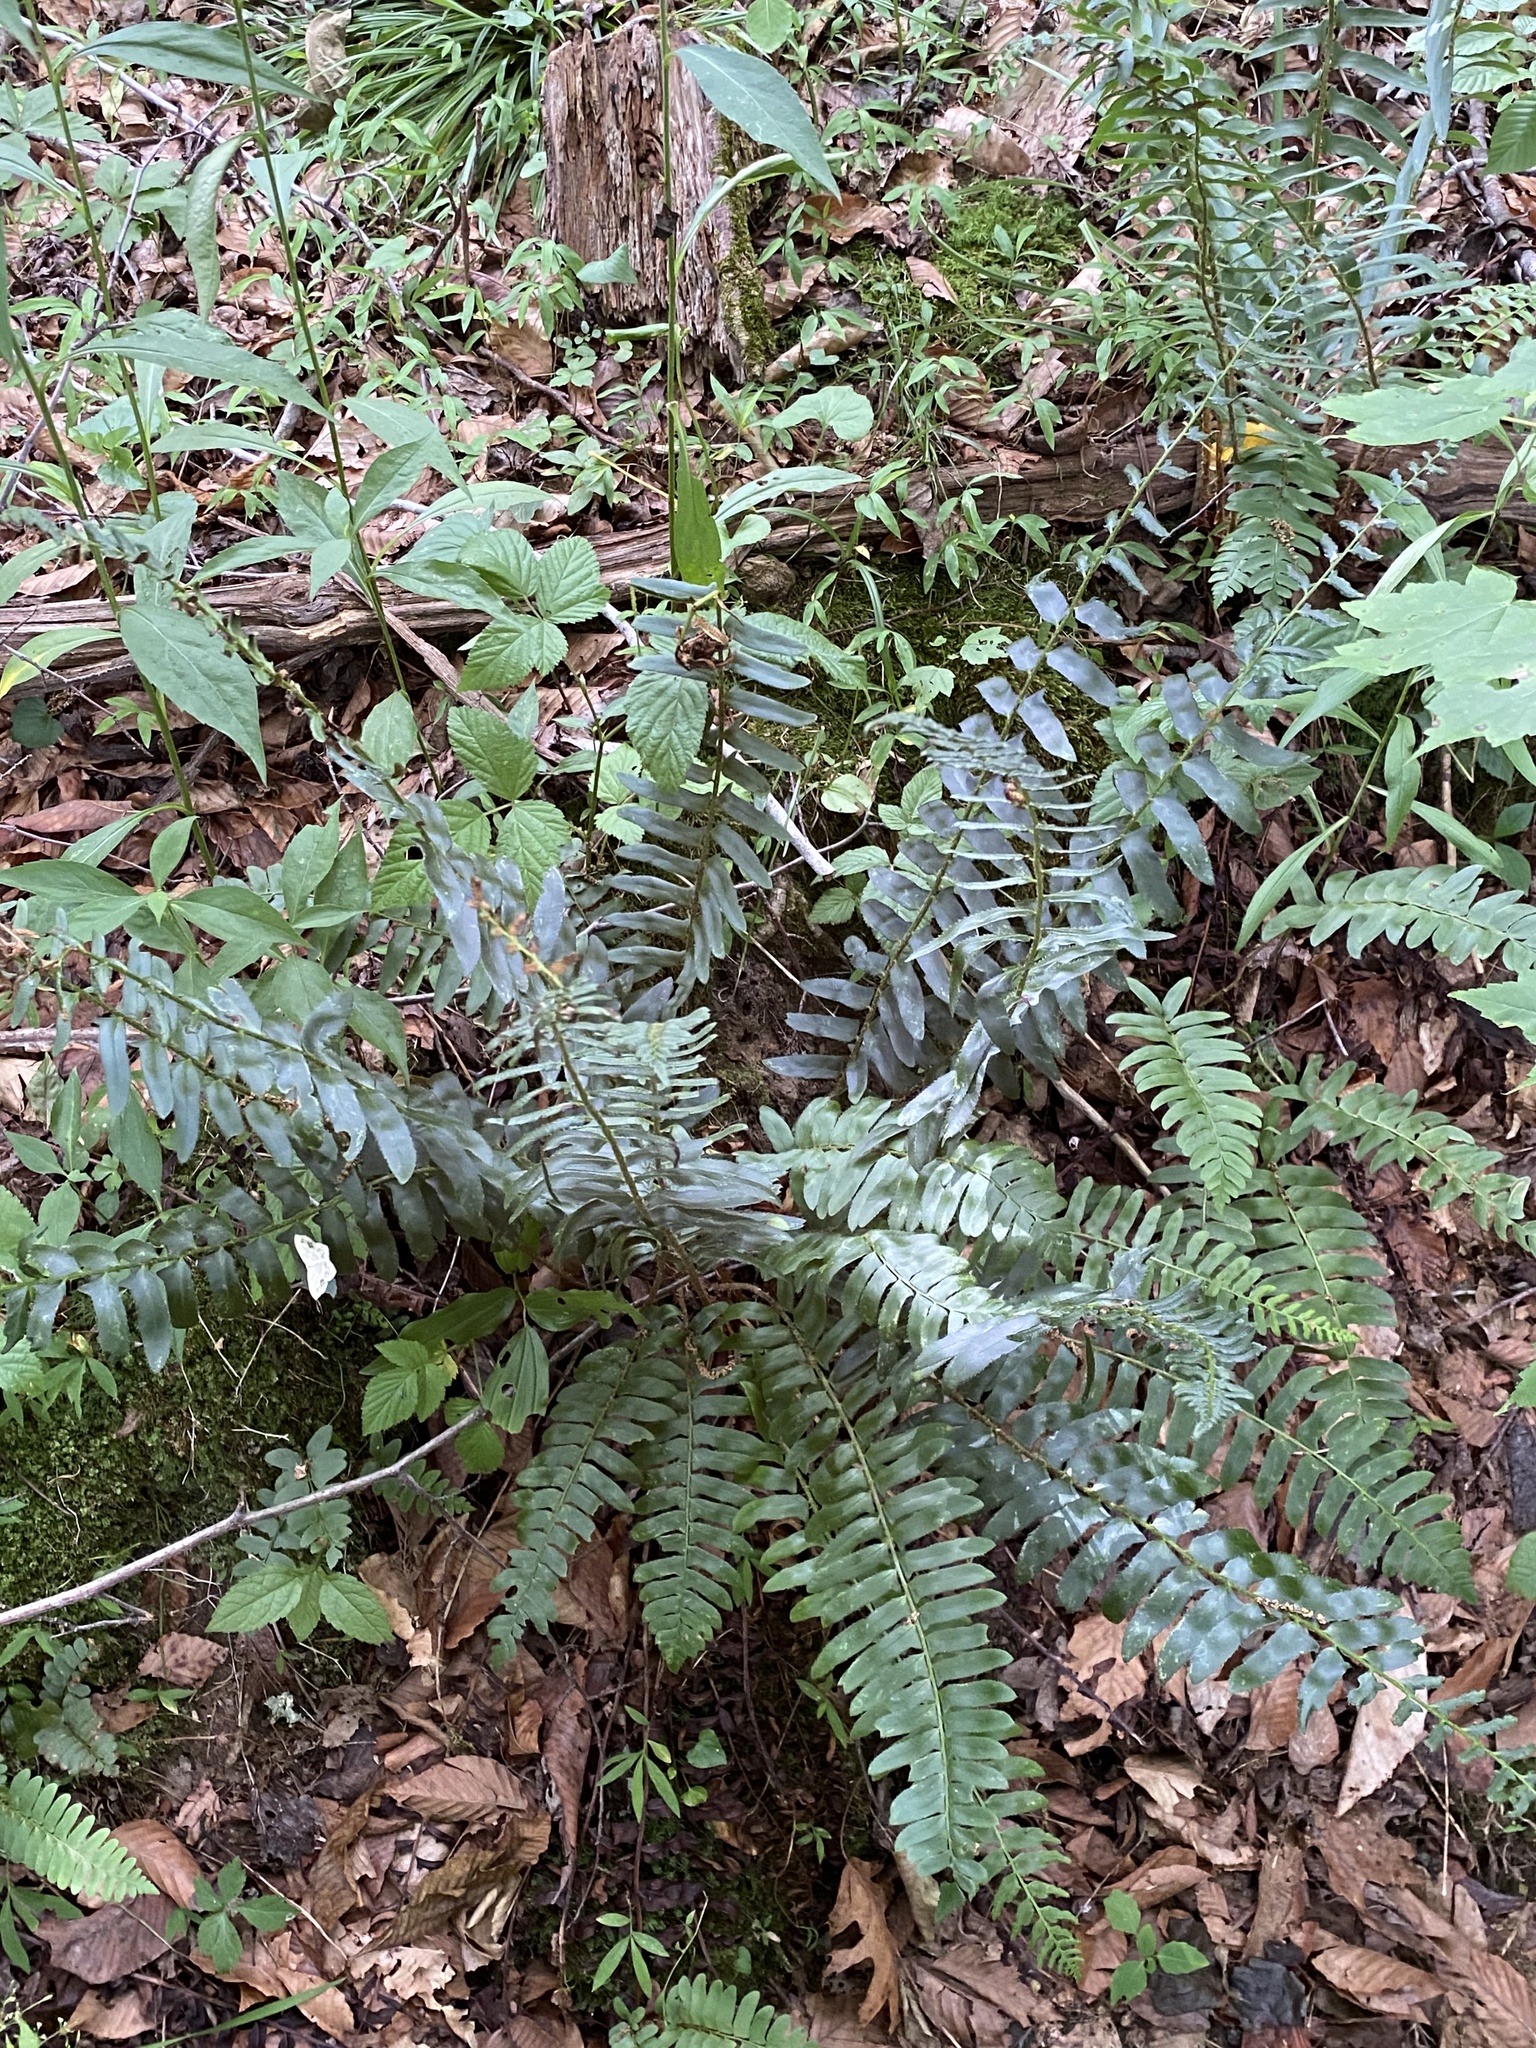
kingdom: Plantae
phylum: Tracheophyta
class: Polypodiopsida
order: Polypodiales
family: Dryopteridaceae
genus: Polystichum
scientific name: Polystichum acrostichoides
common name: Christmas fern
